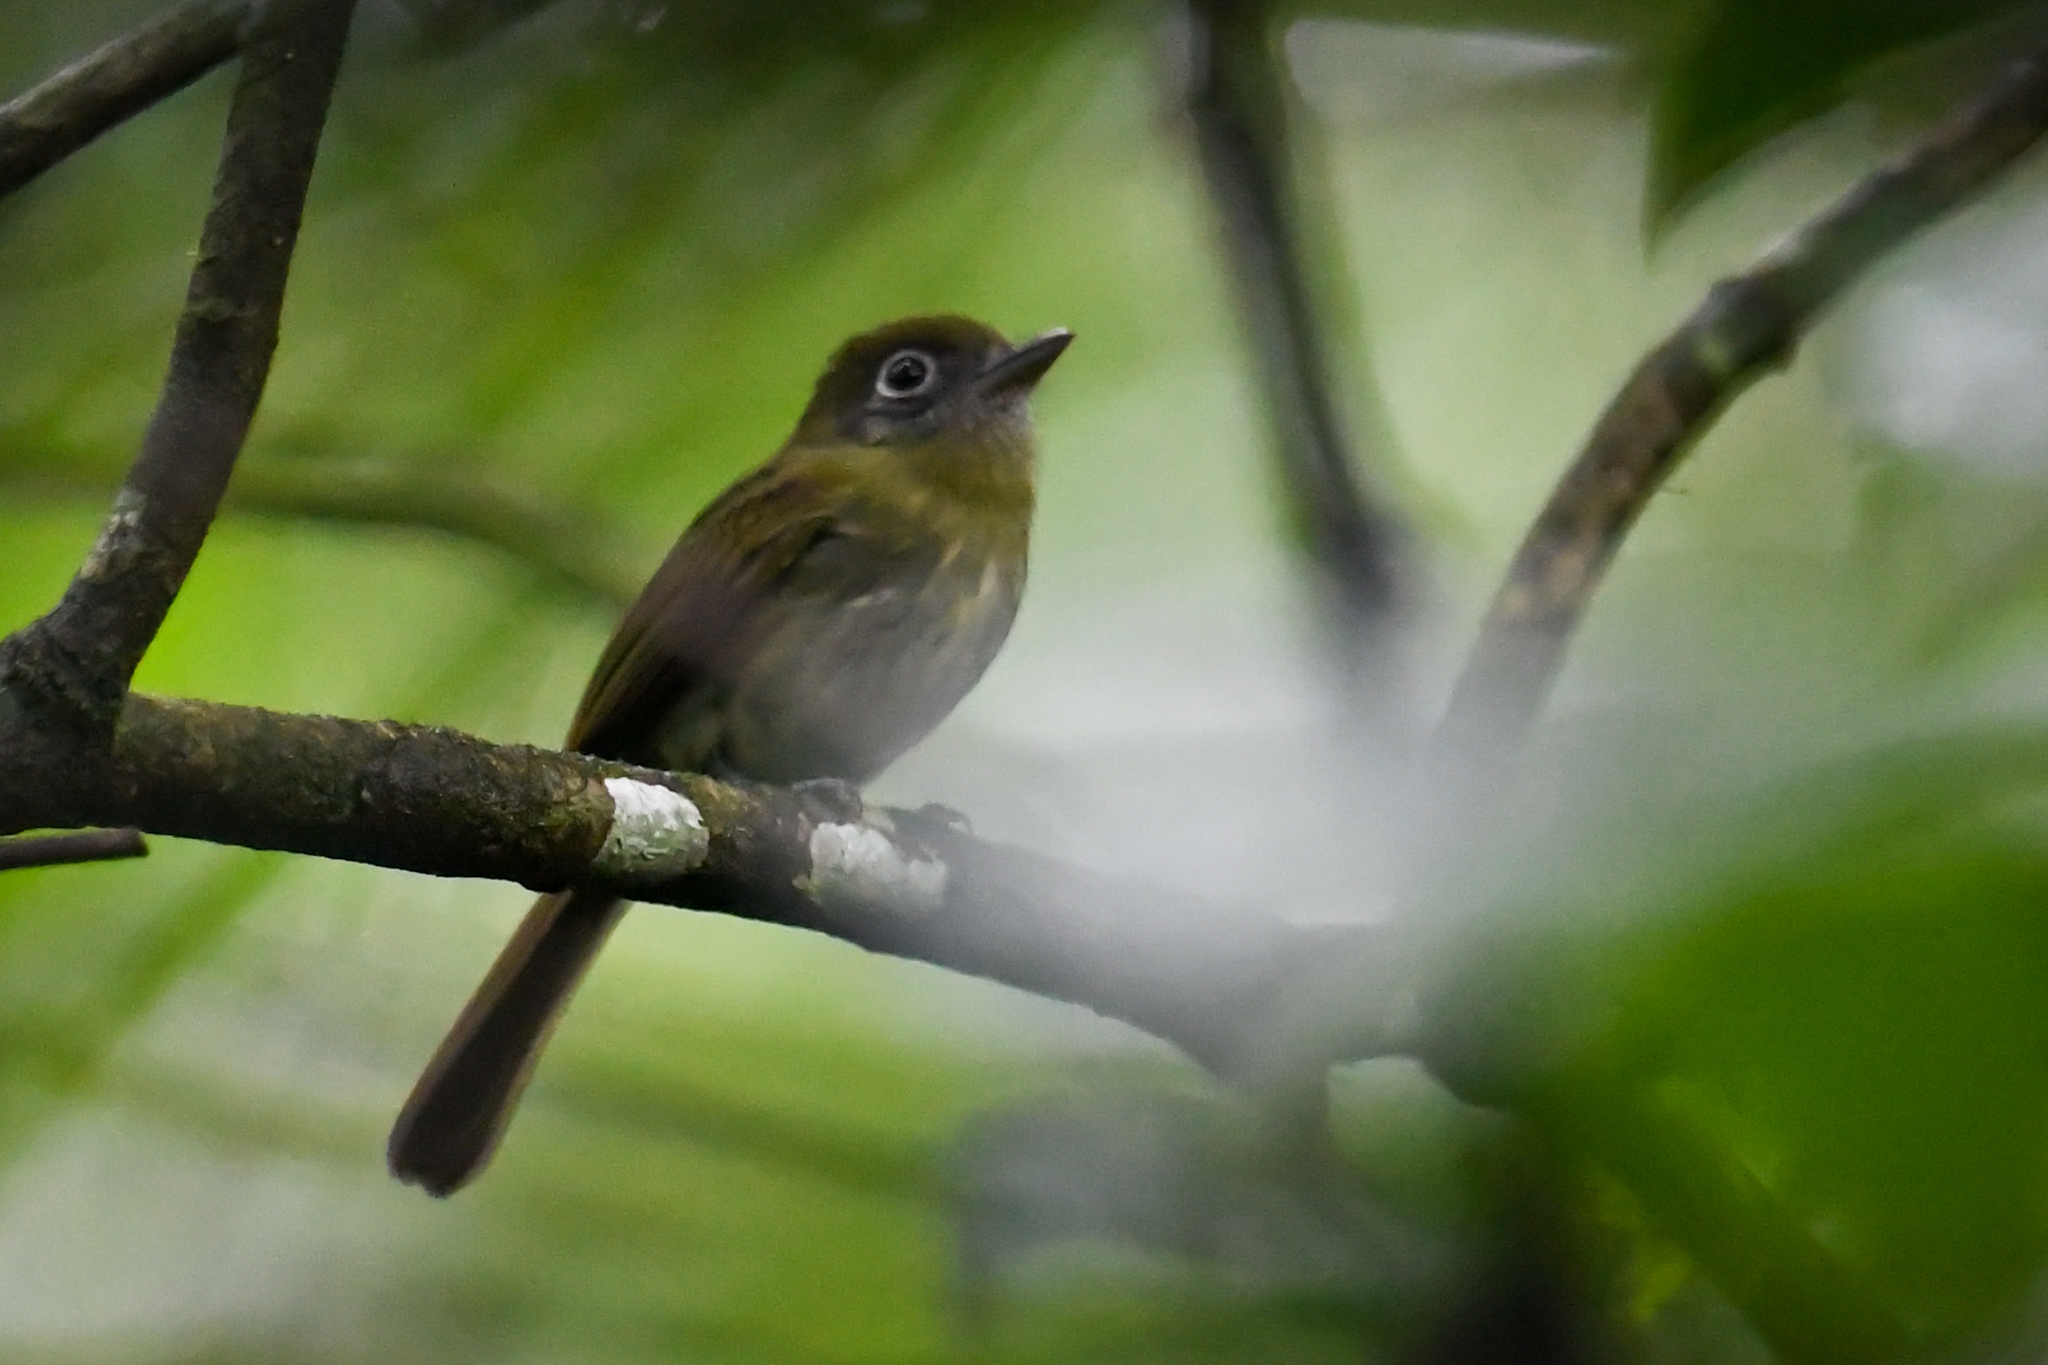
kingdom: Animalia
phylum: Chordata
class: Aves
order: Passeriformes
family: Tyrannidae
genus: Rhynchocyclus
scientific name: Rhynchocyclus brevirostris
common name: Eye-ringed flatbill
